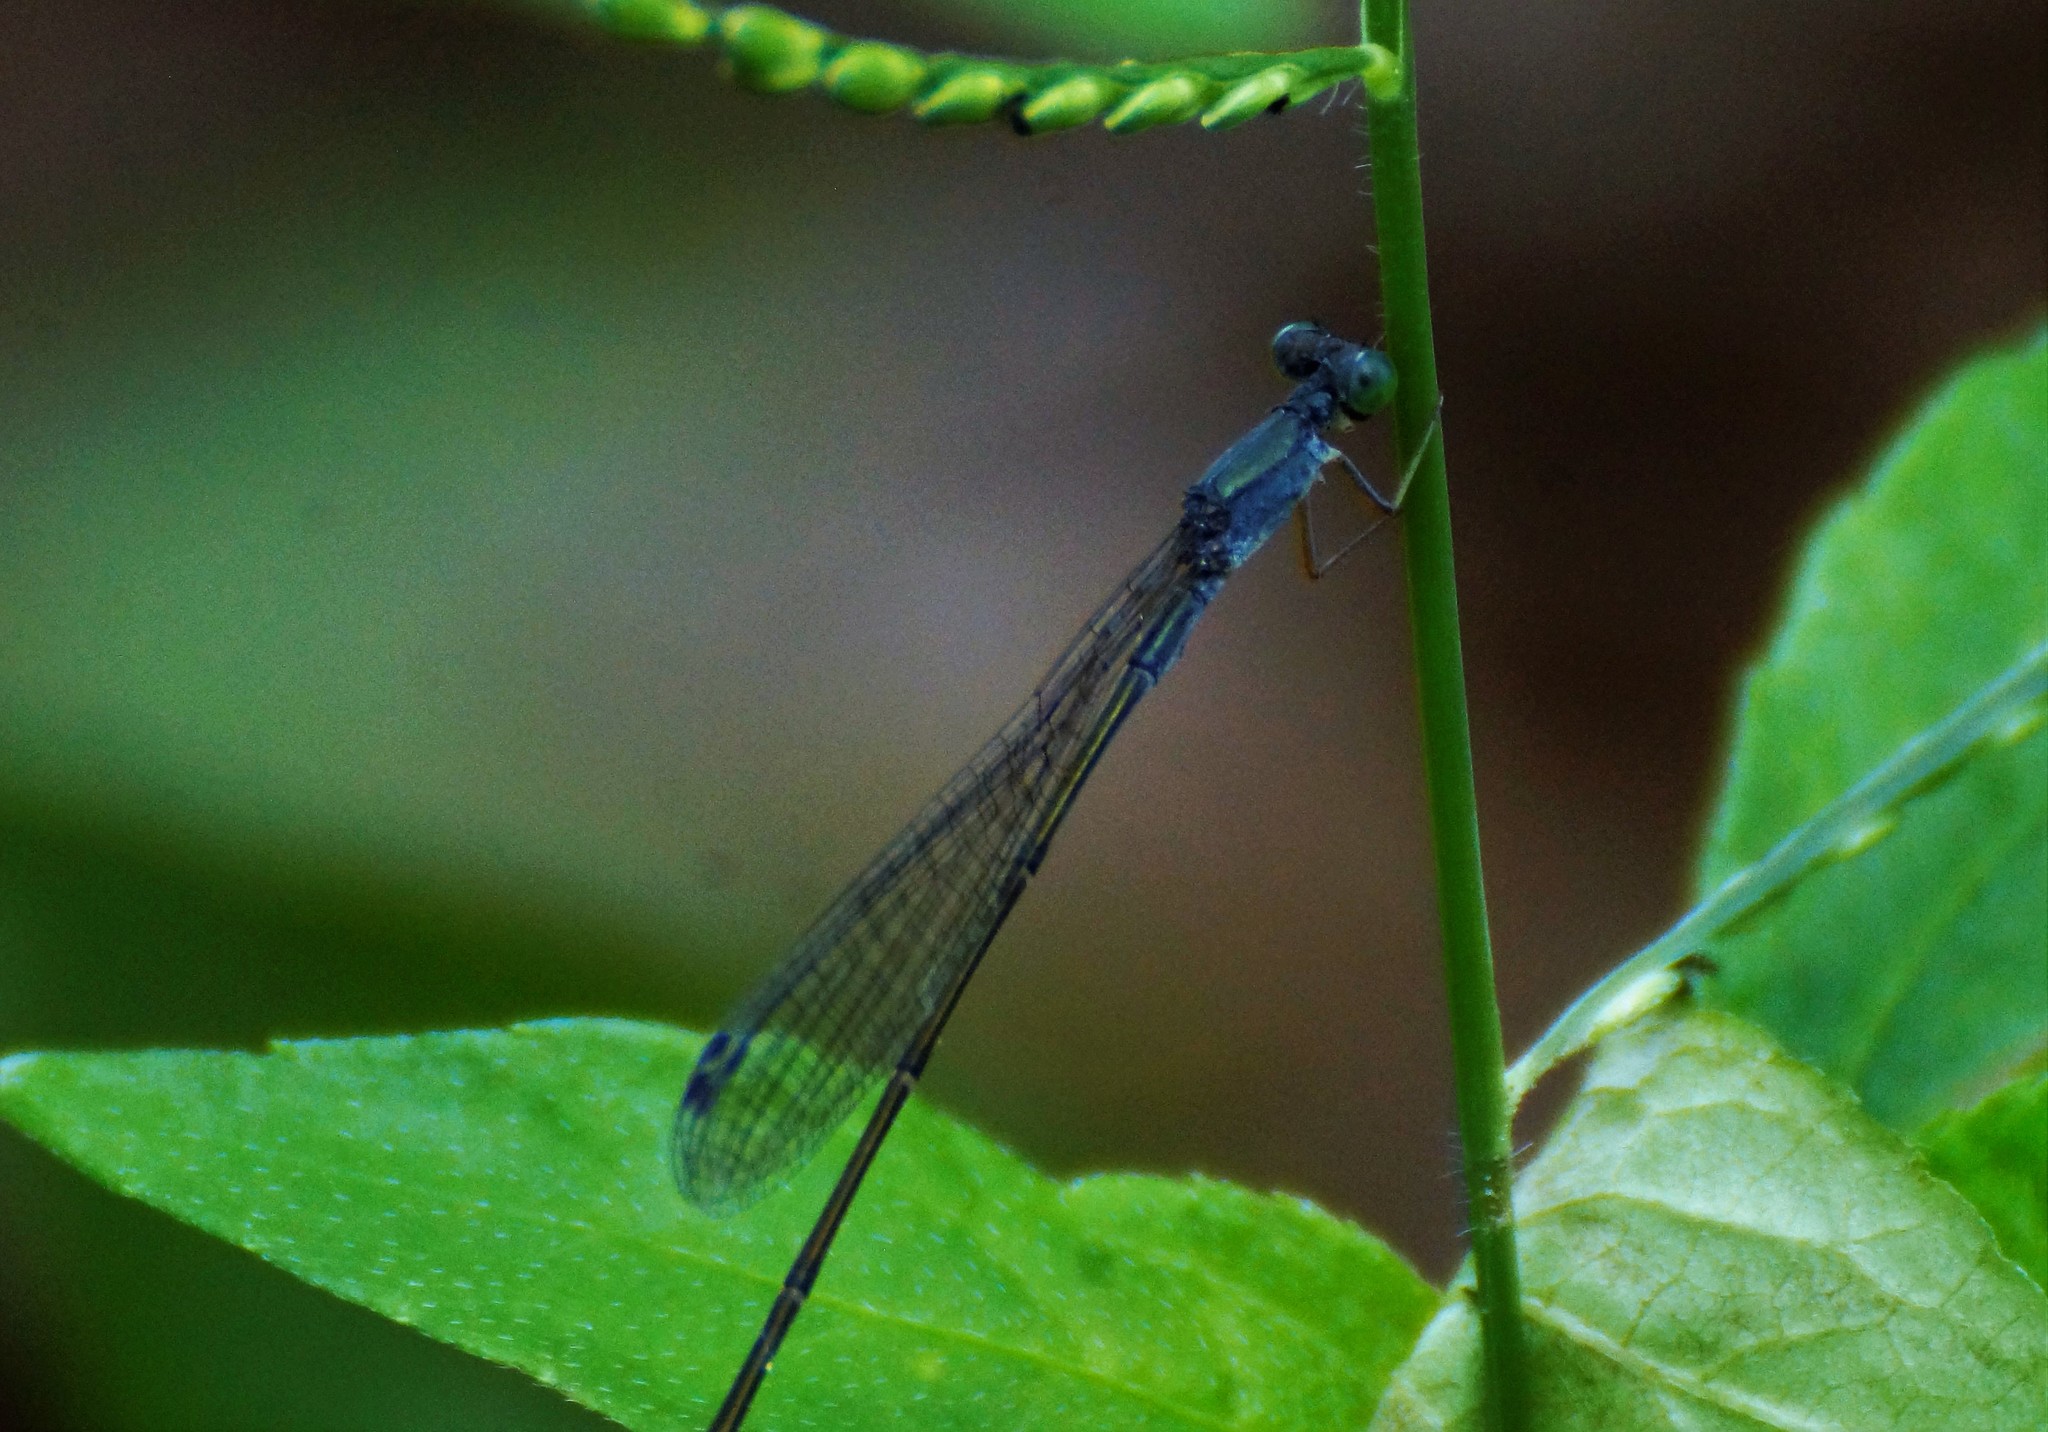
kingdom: Animalia
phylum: Arthropoda
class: Insecta
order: Odonata
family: Isostictidae
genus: Rhadinosticta
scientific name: Rhadinosticta banksi
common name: Northern wiretail
